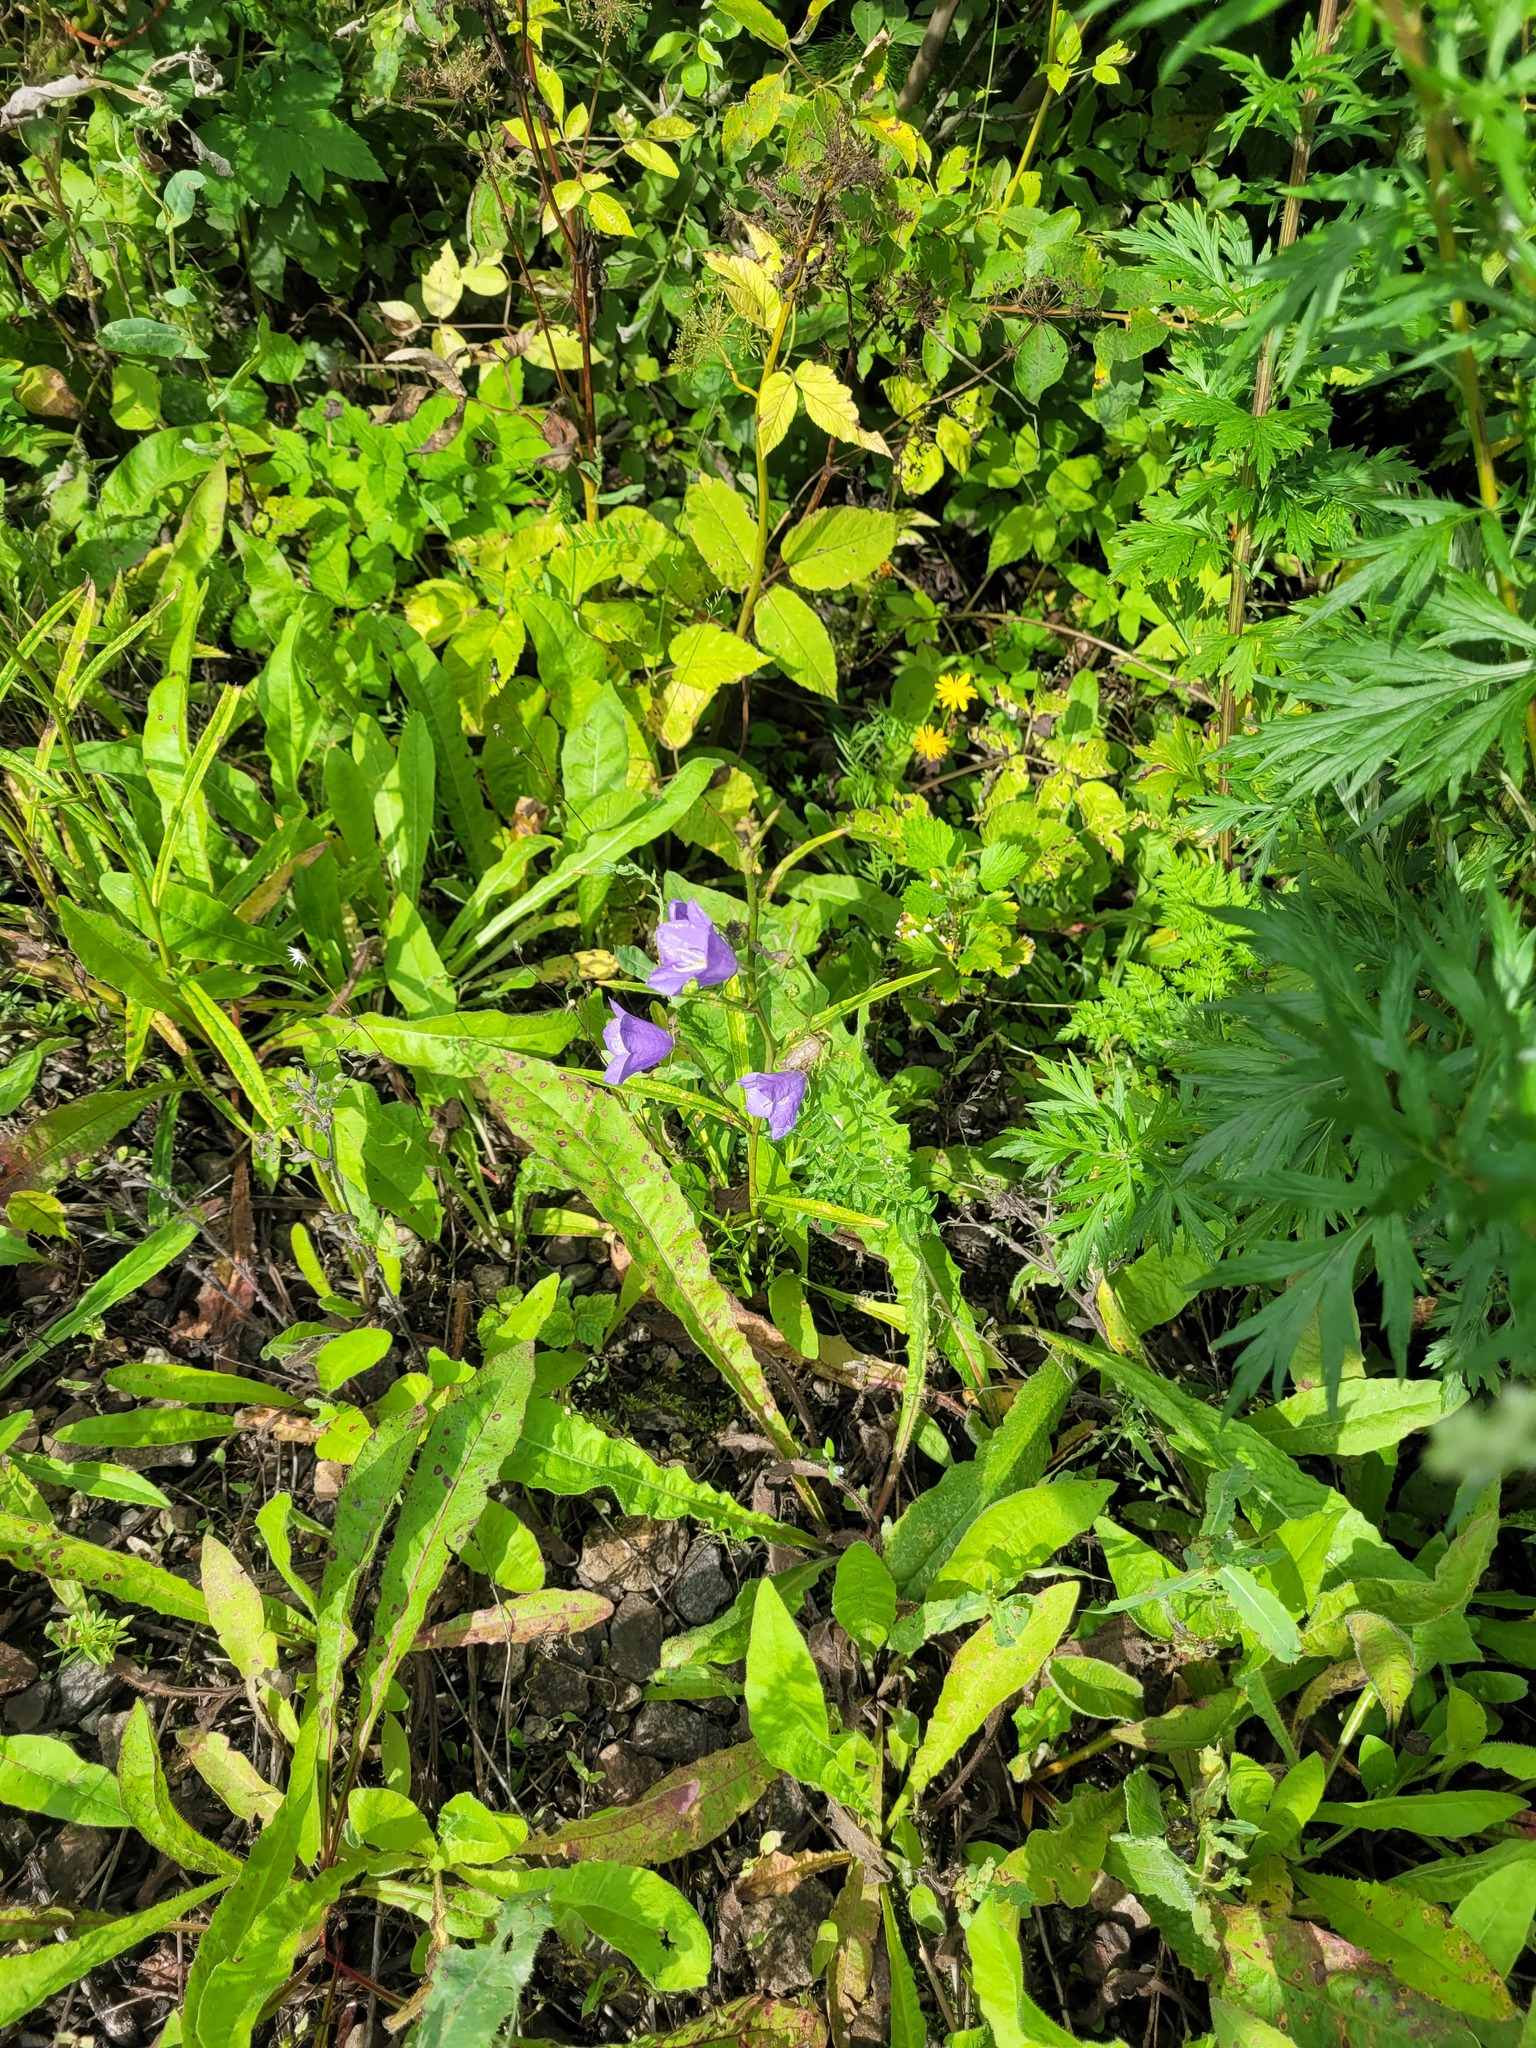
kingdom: Plantae
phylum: Tracheophyta
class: Magnoliopsida
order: Asterales
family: Campanulaceae
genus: Campanula
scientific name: Campanula persicifolia
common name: Peach-leaved bellflower
